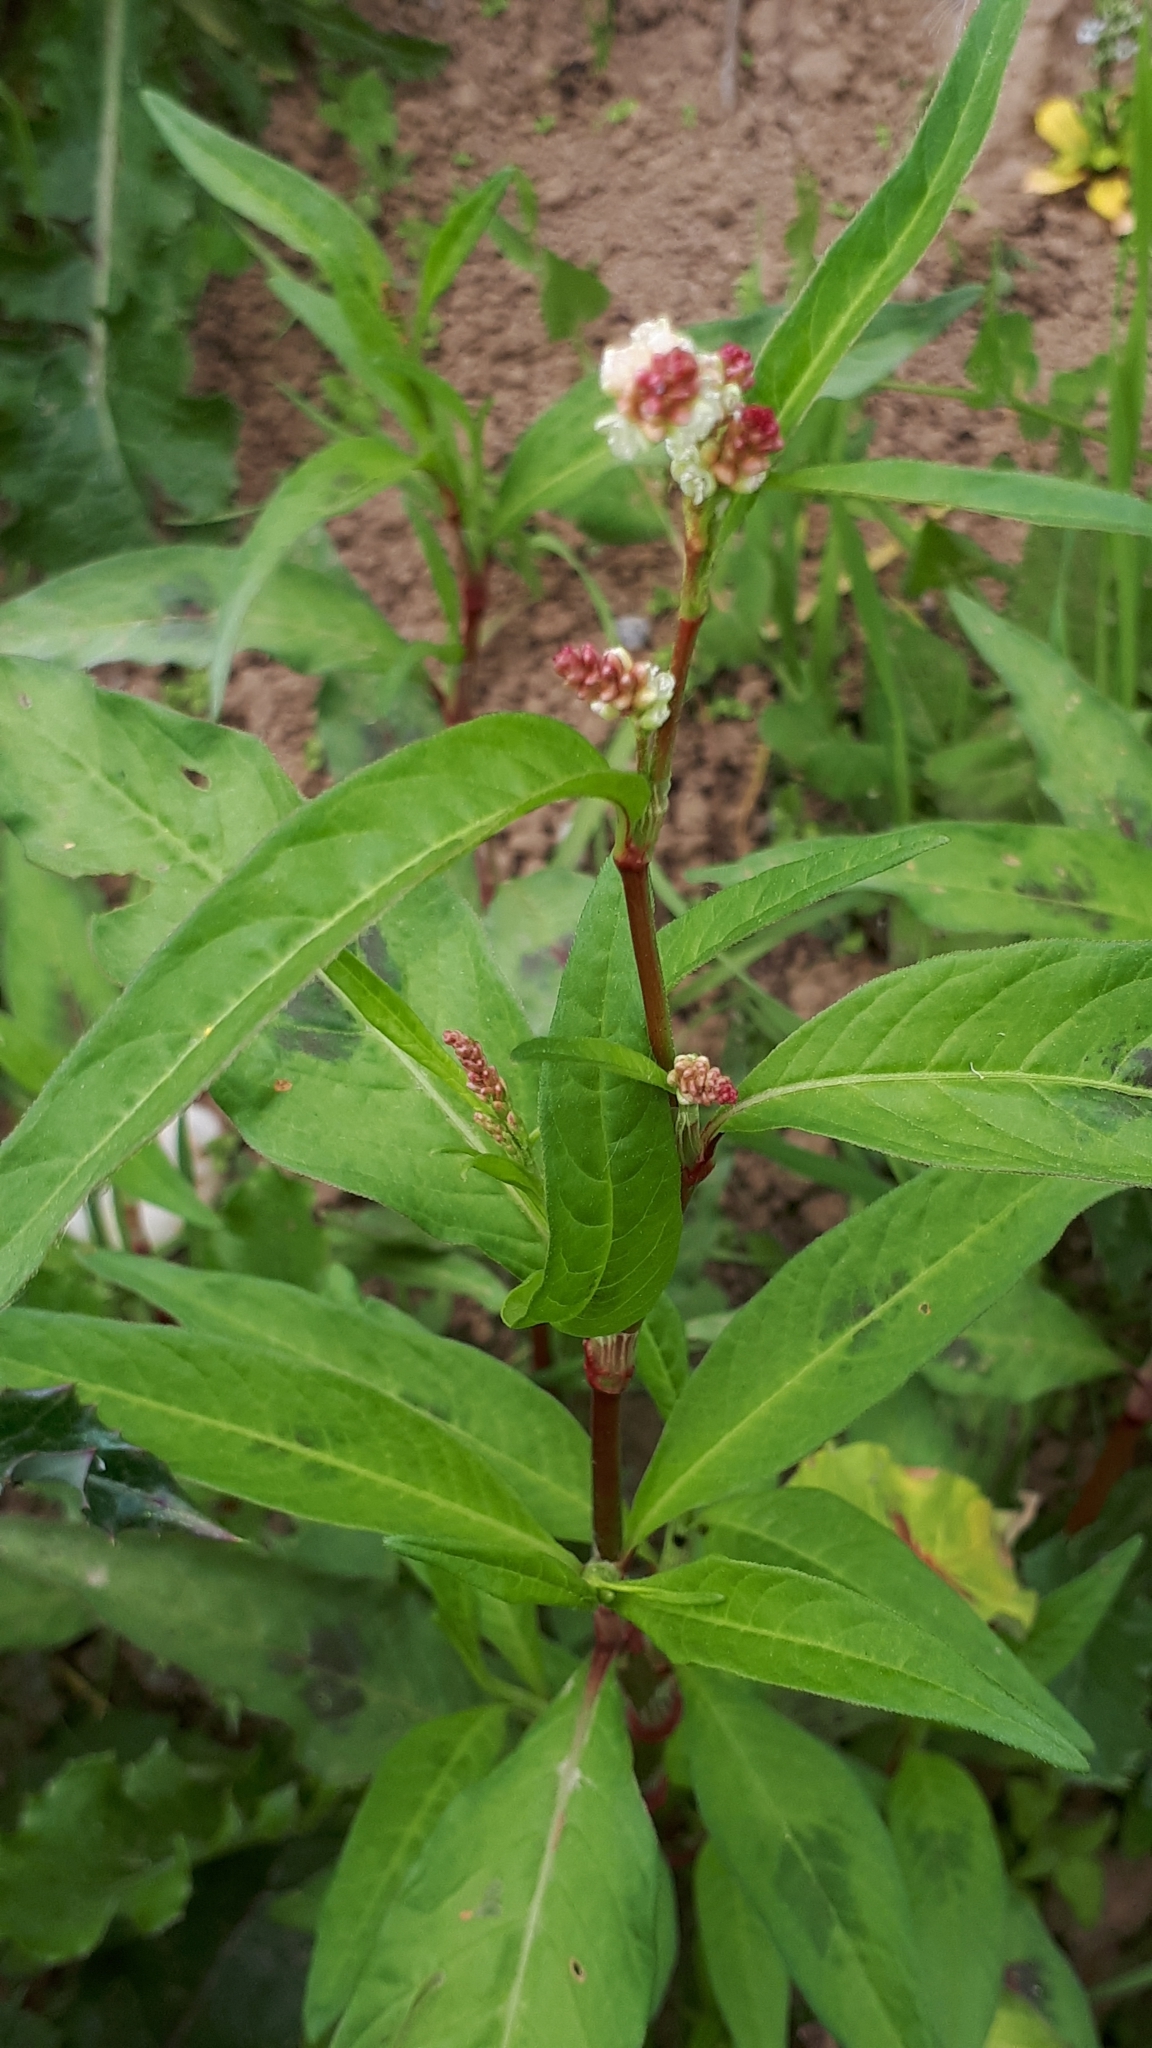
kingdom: Plantae
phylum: Tracheophyta
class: Magnoliopsida
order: Caryophyllales
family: Polygonaceae
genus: Persicaria
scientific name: Persicaria lapathifolia
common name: Curlytop knotweed
